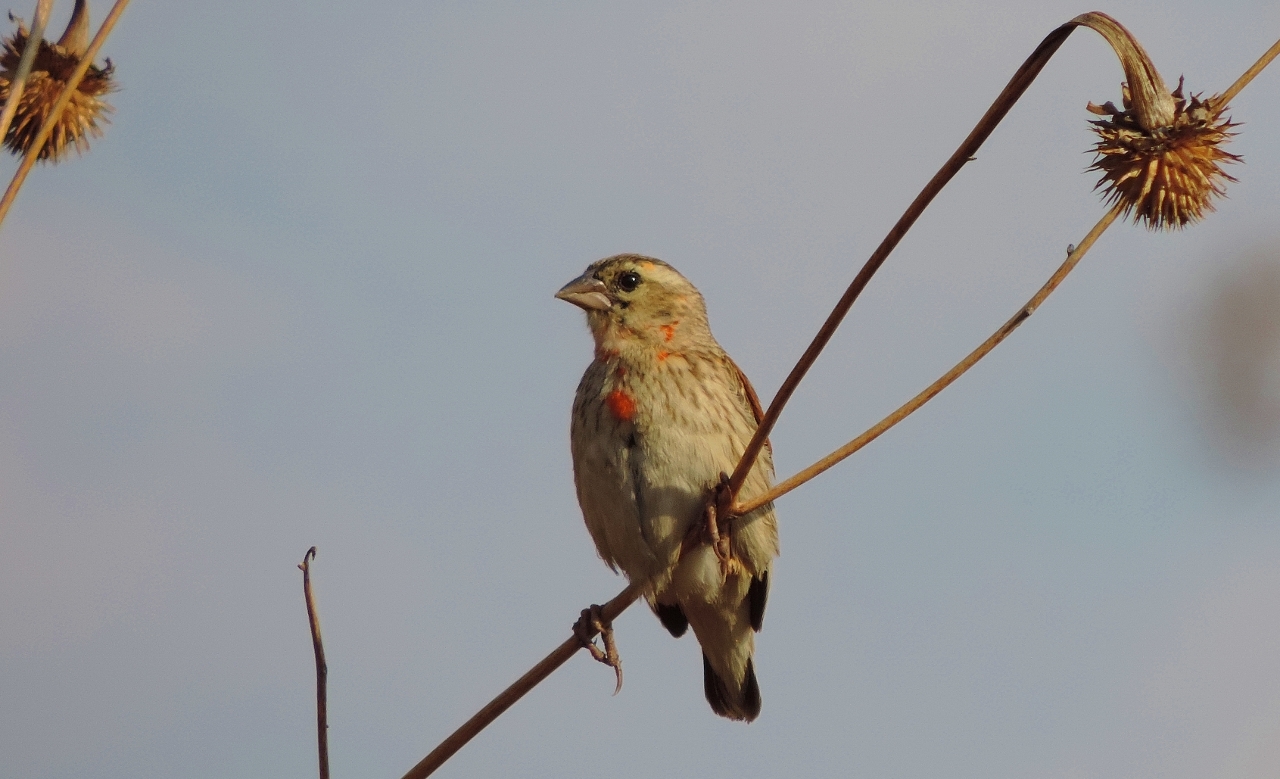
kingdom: Animalia
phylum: Chordata
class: Aves
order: Passeriformes
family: Ploceidae
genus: Euplectes
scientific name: Euplectes orix
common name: Southern red bishop
